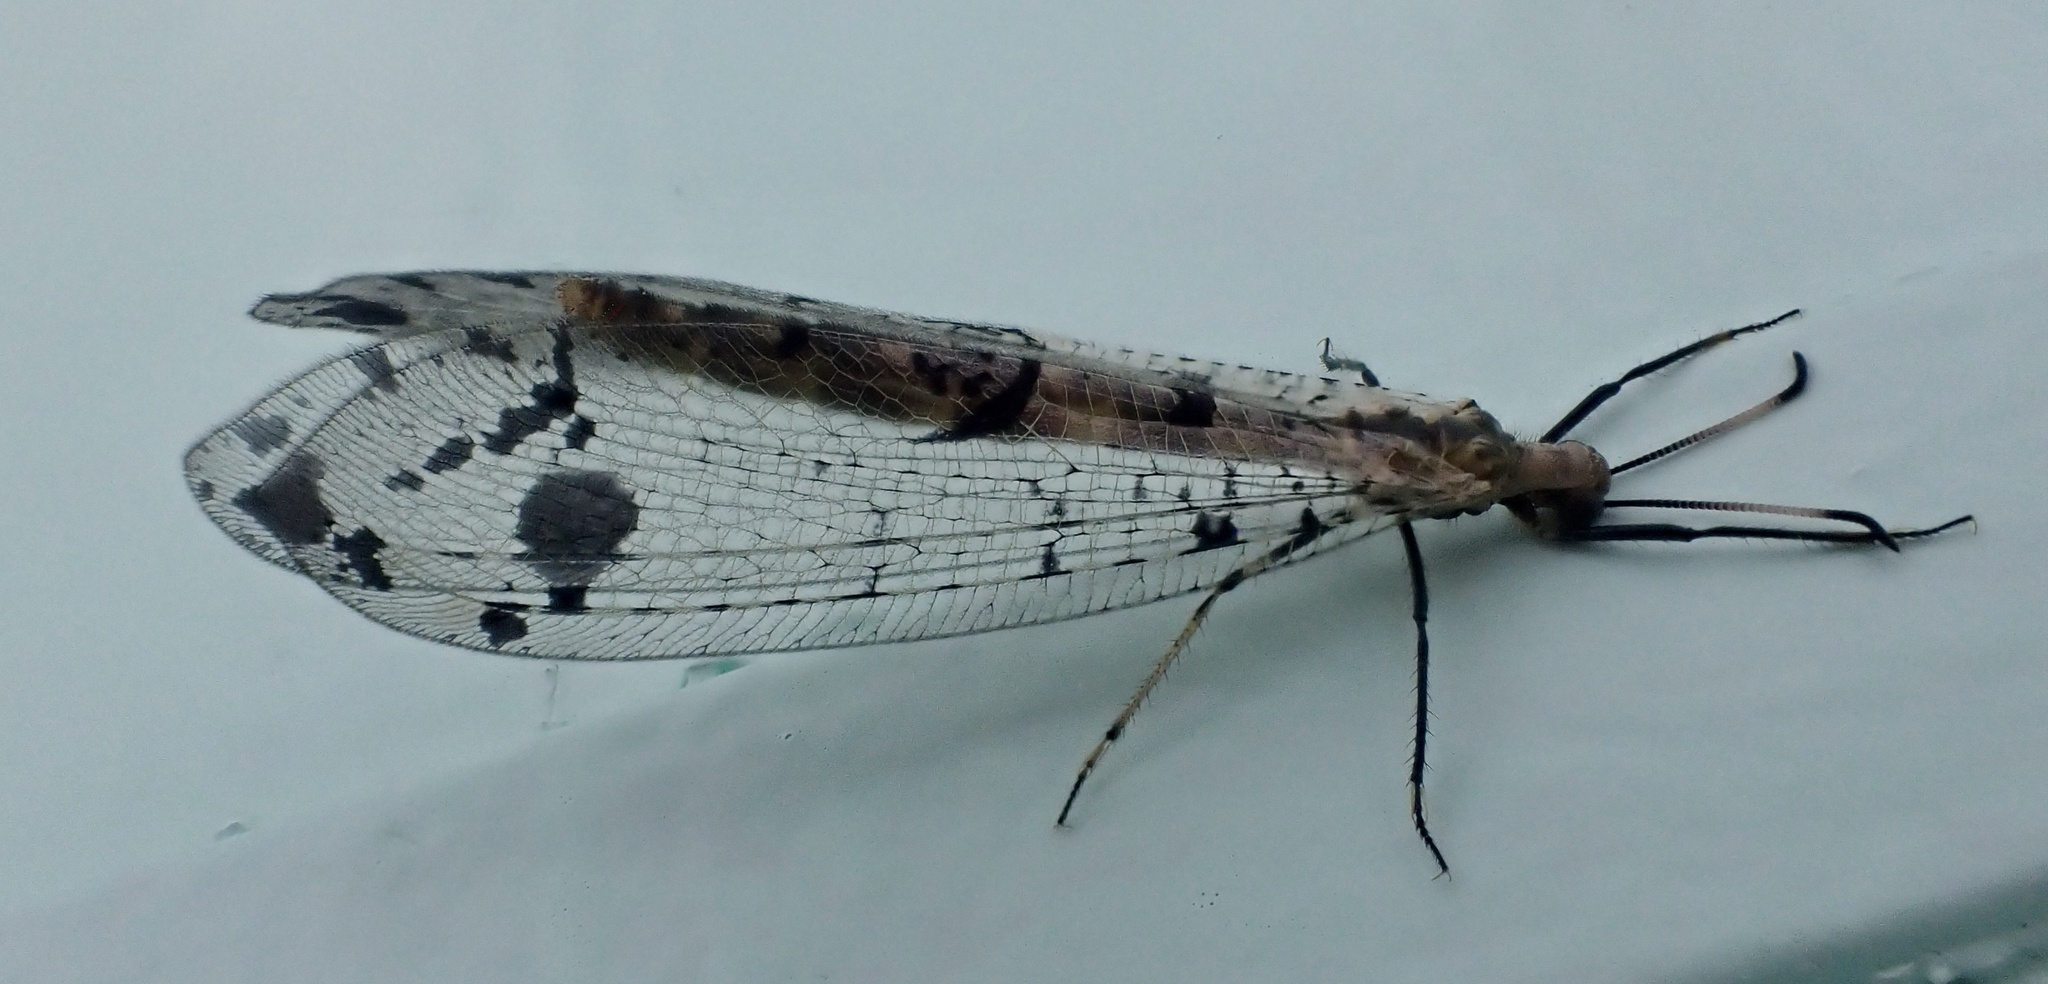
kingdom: Animalia
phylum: Arthropoda
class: Insecta
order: Neuroptera
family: Myrmeleontidae
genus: Dendroleon
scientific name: Dendroleon obsoletus
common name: Eastern spotted-winged antlion
